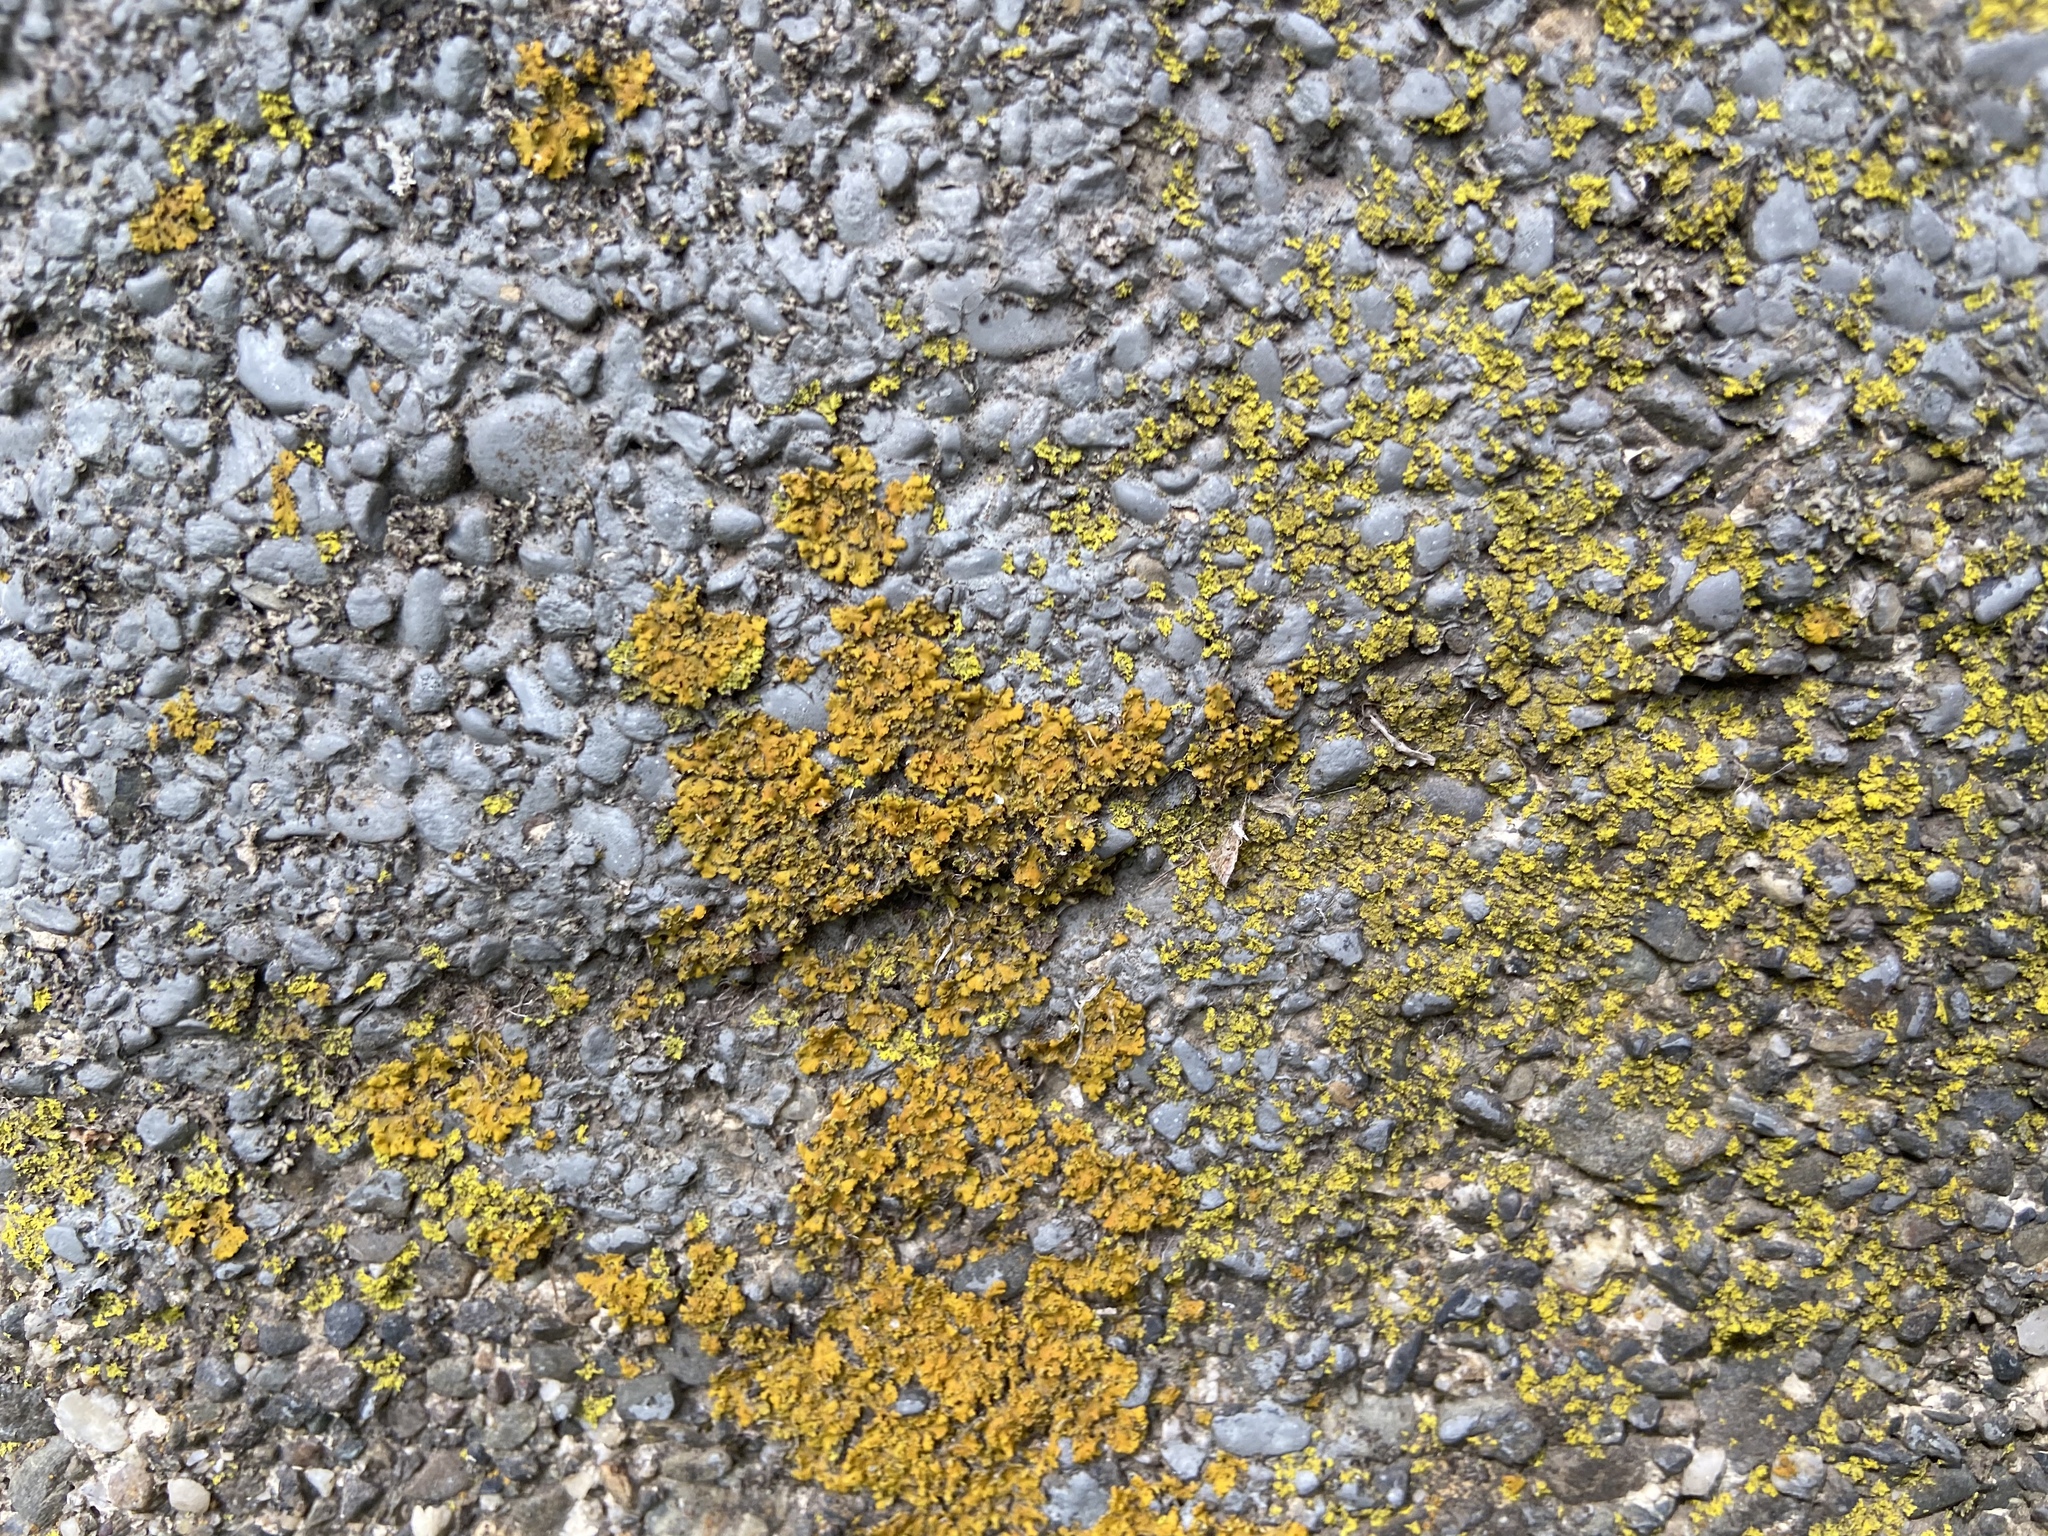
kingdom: Fungi
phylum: Ascomycota
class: Candelariomycetes
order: Candelariales
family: Candelariaceae
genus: Candelariella
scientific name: Candelariella vitellina
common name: Common goldspeck
